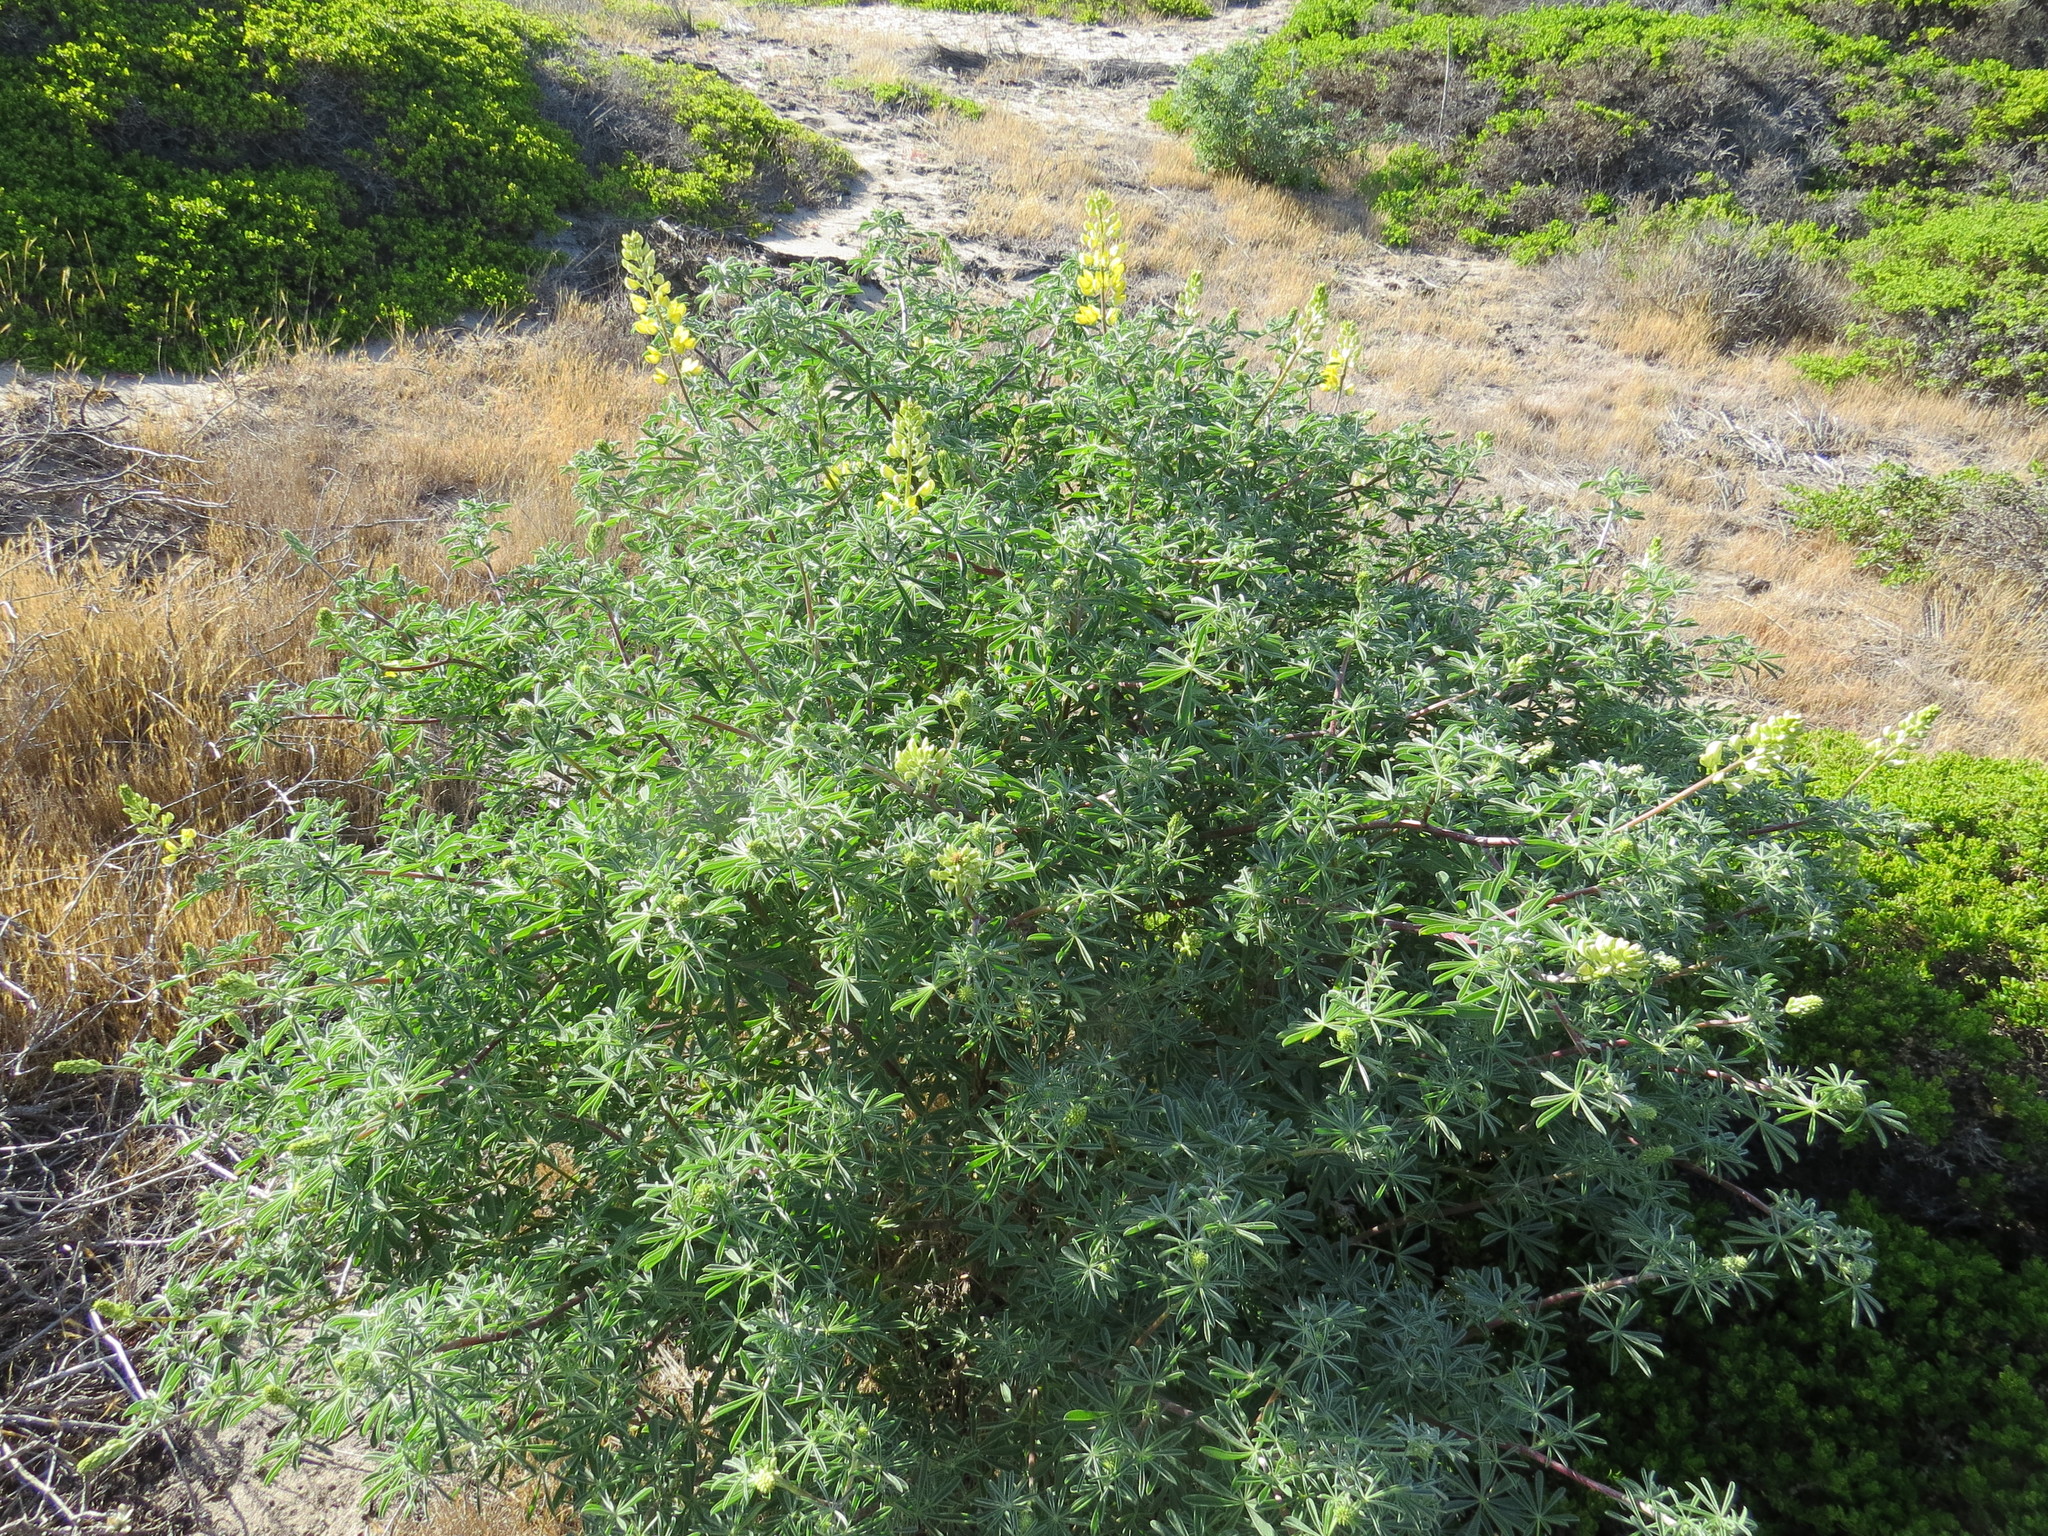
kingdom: Plantae
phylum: Tracheophyta
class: Magnoliopsida
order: Fabales
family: Fabaceae
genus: Lupinus
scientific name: Lupinus arboreus
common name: Yellow bush lupine
